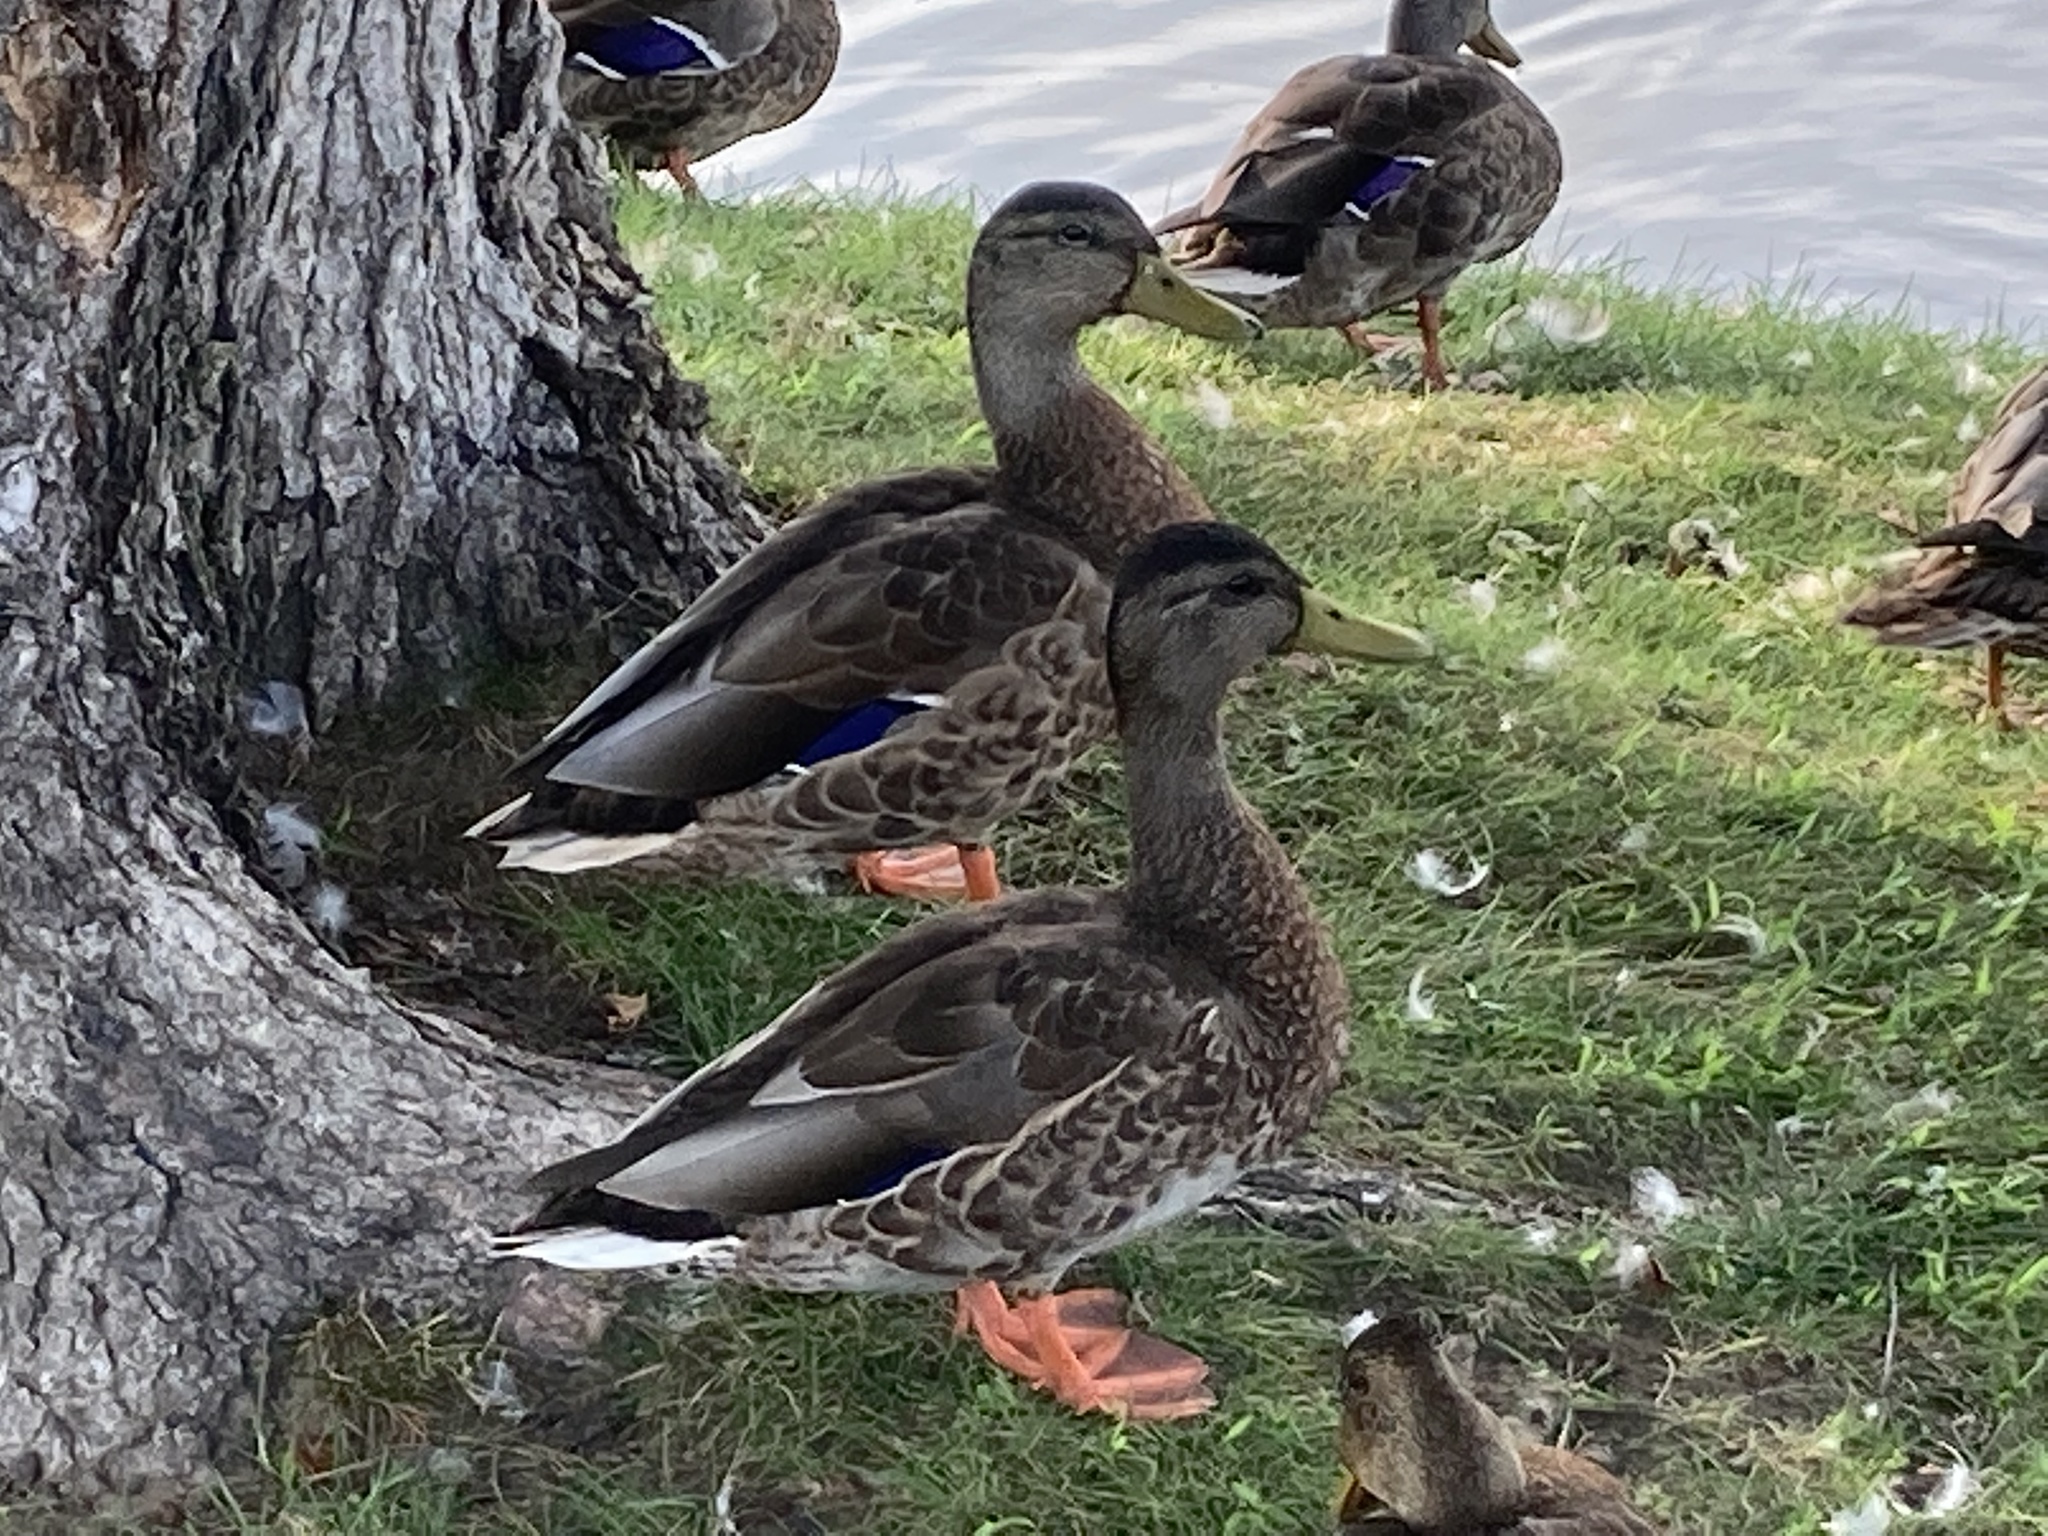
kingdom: Animalia
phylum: Chordata
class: Aves
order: Anseriformes
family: Anatidae
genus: Anas
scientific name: Anas platyrhynchos
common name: Mallard
